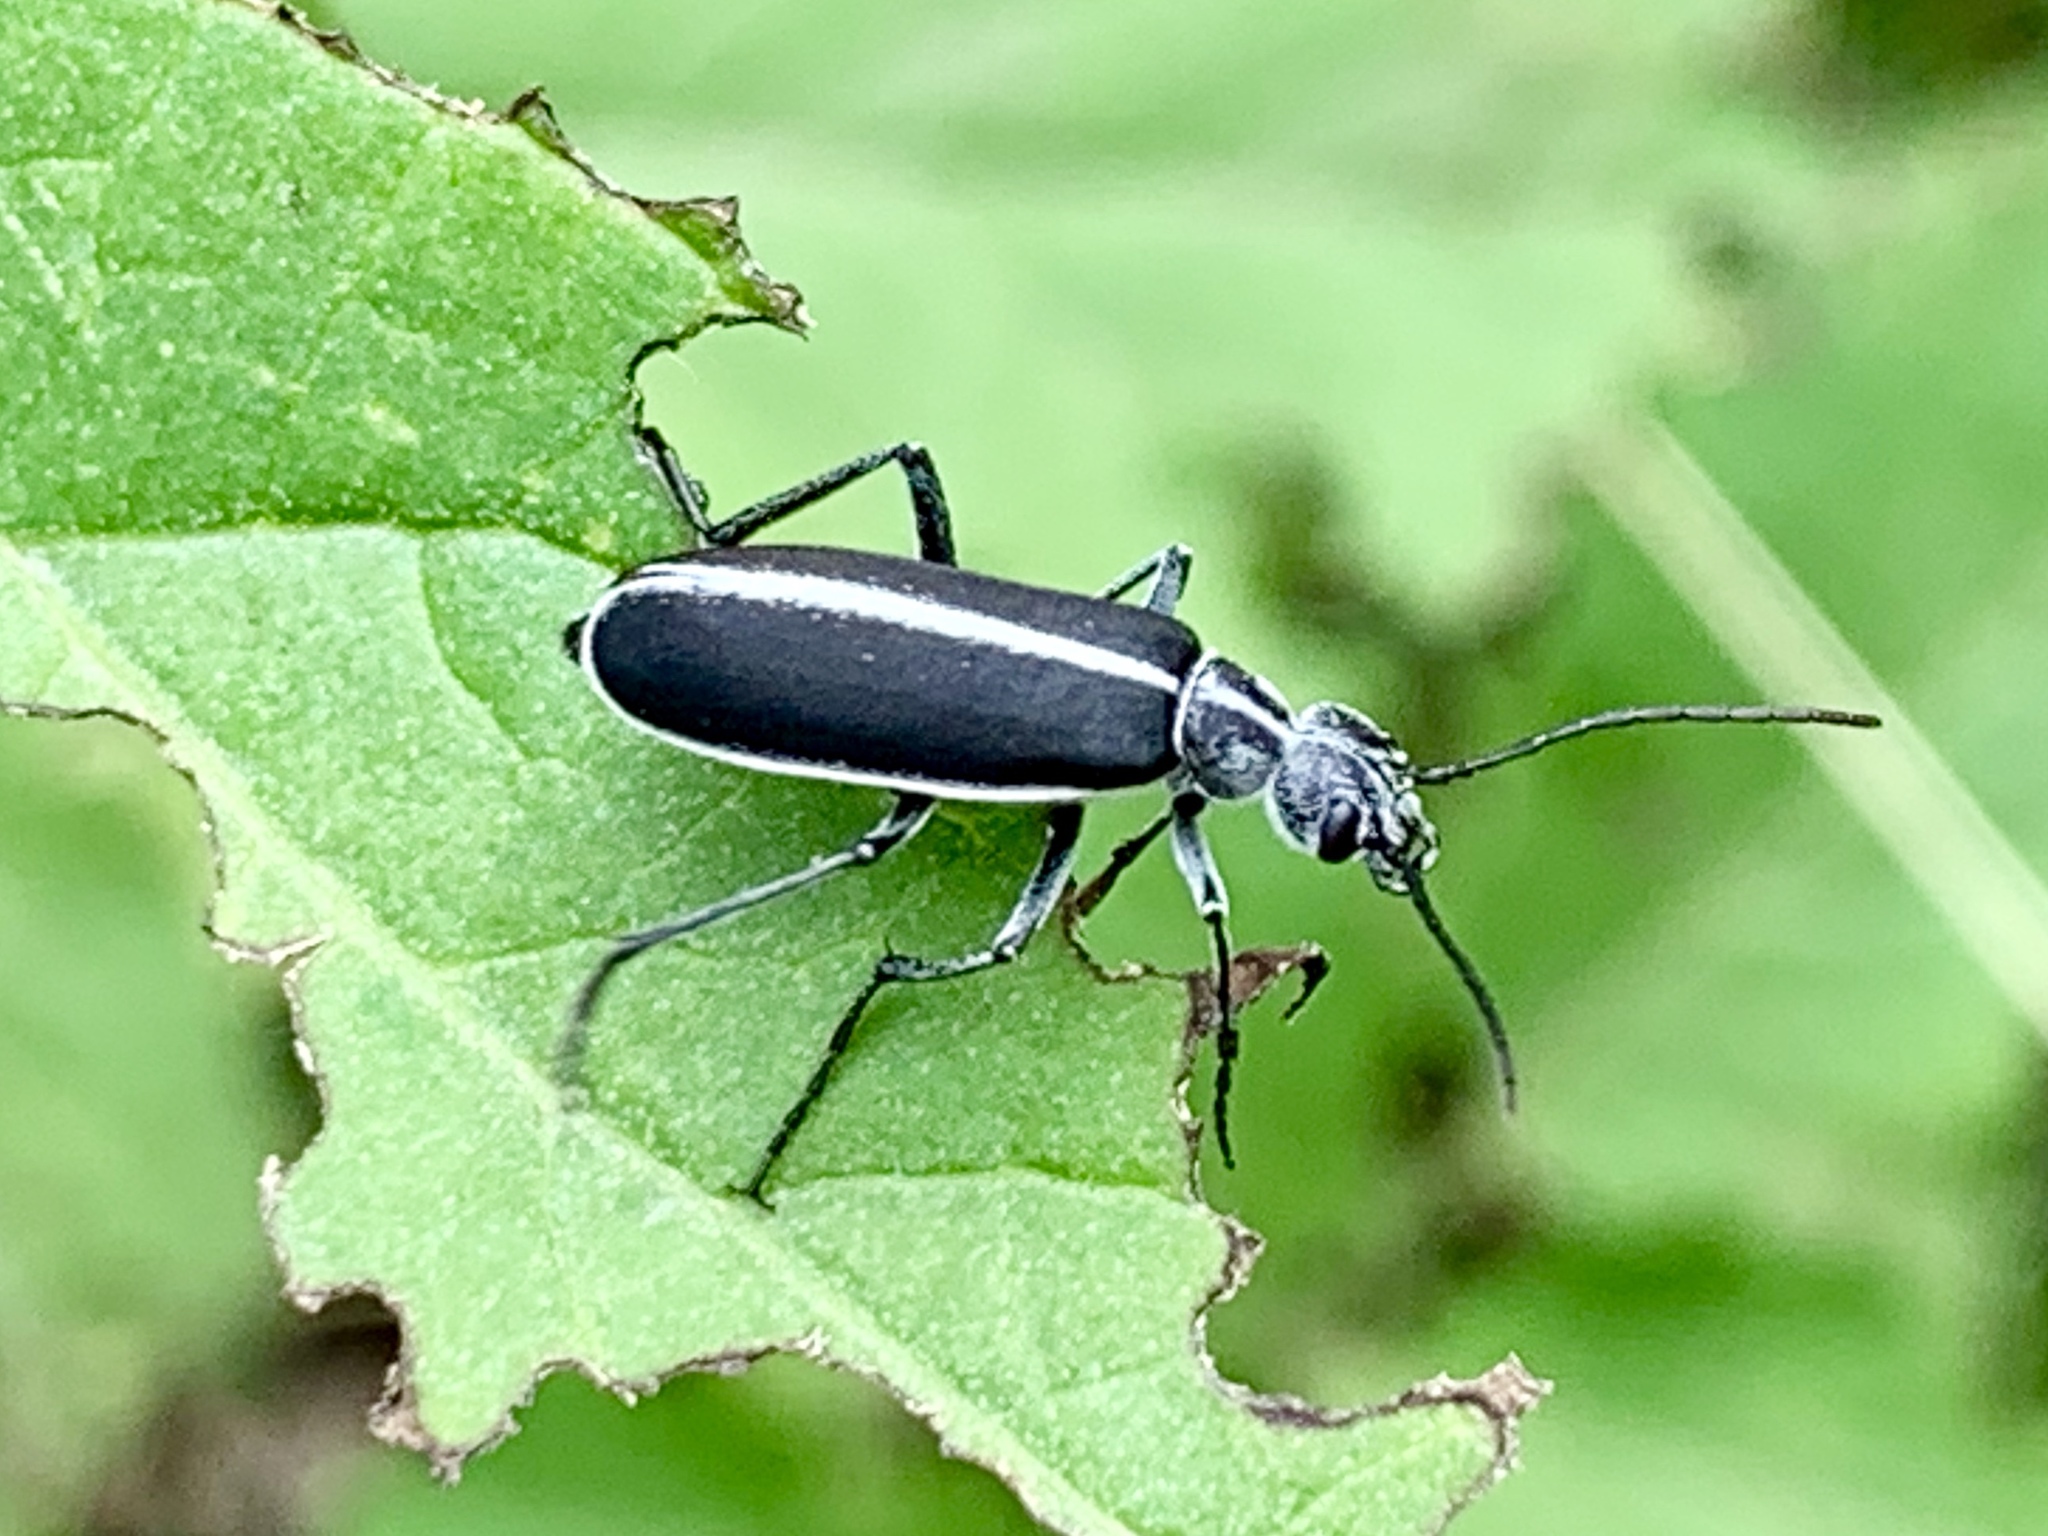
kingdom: Animalia
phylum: Arthropoda
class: Insecta
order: Coleoptera
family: Meloidae
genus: Epicauta
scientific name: Epicauta cinctipennis
